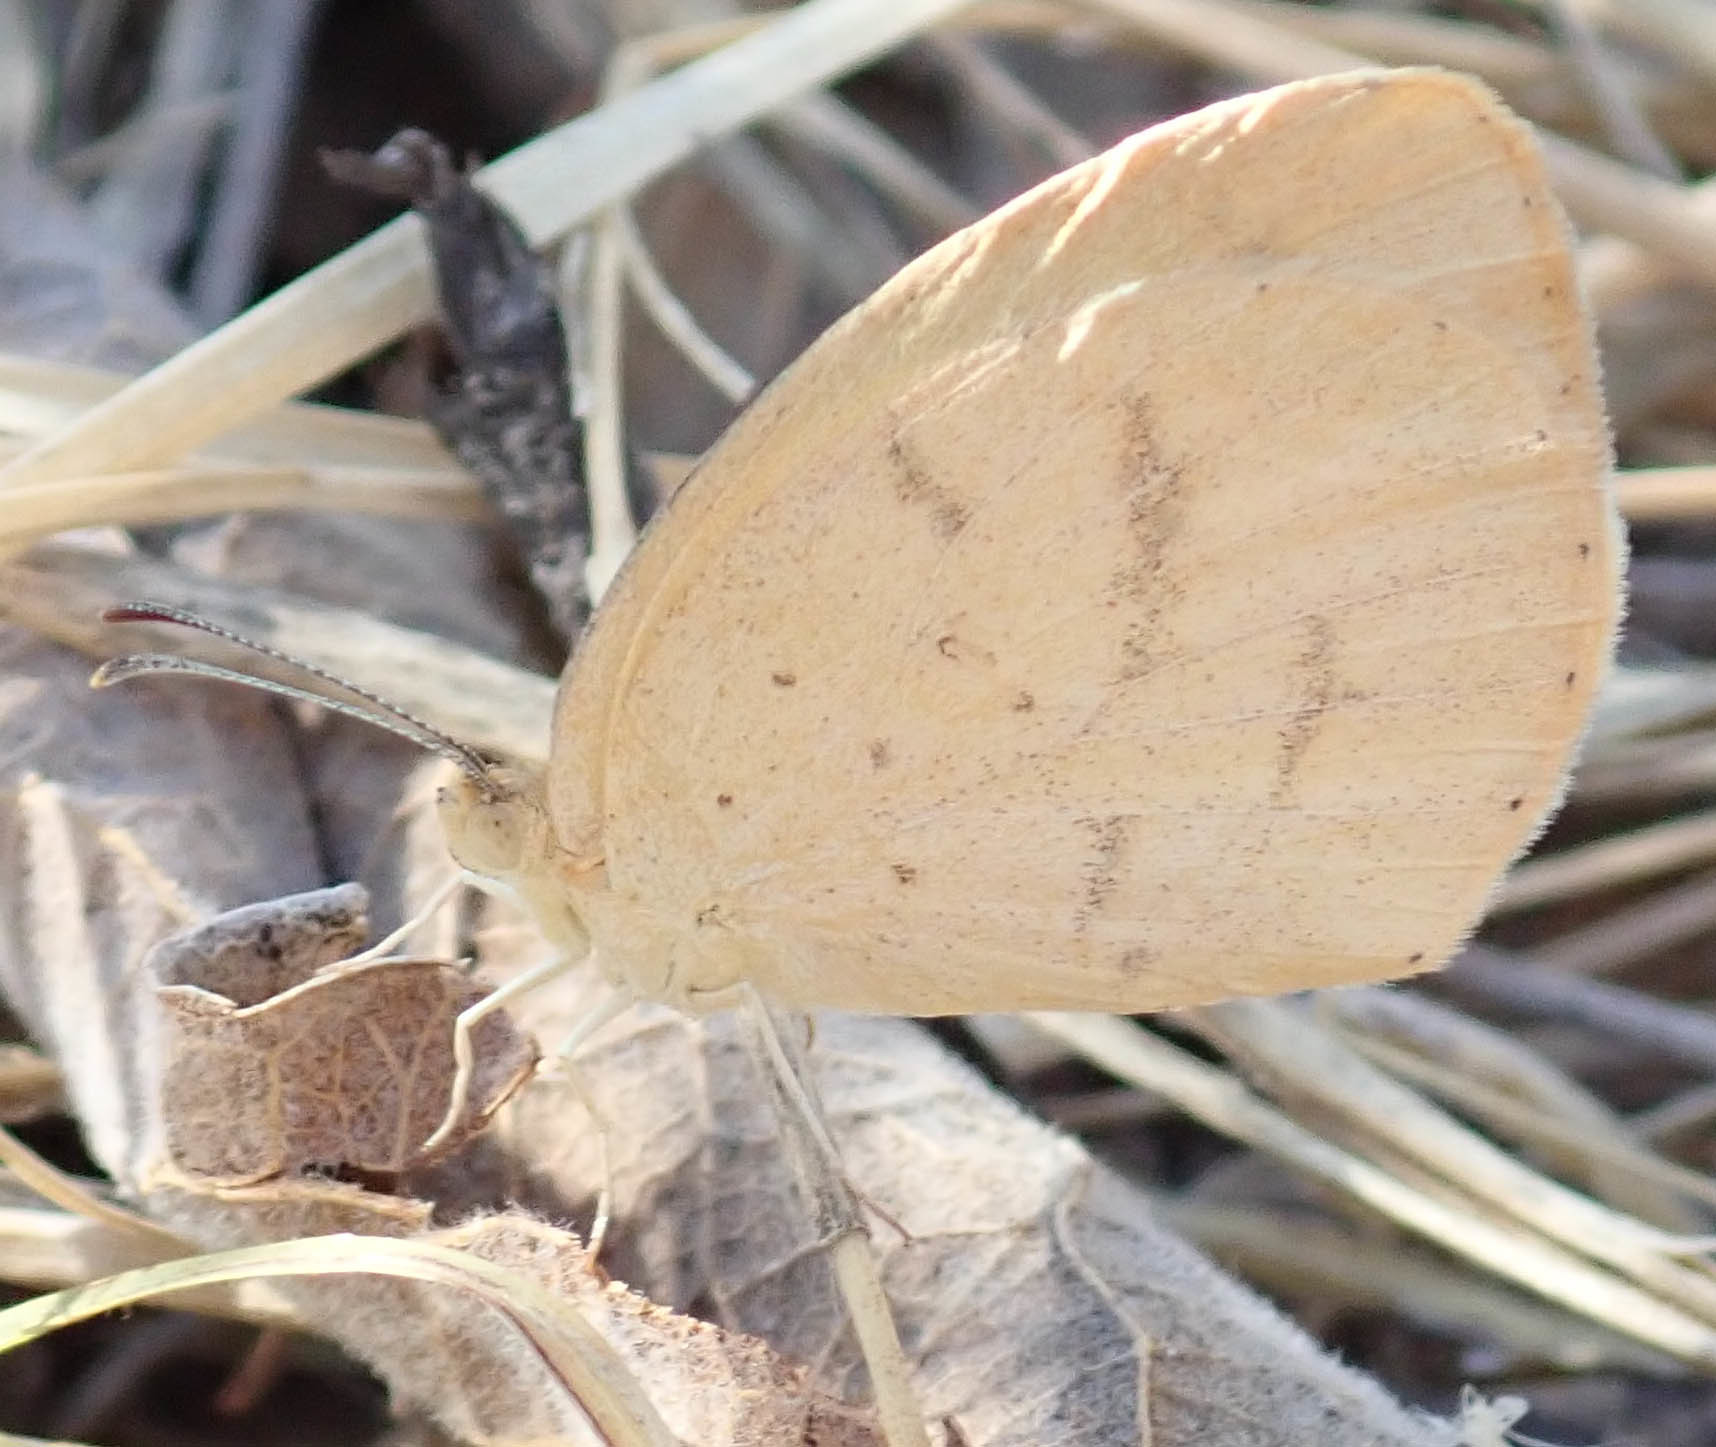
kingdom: Animalia
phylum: Arthropoda
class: Insecta
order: Lepidoptera
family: Pieridae
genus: Eurema
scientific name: Eurema brigitta
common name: Small grass yellow
